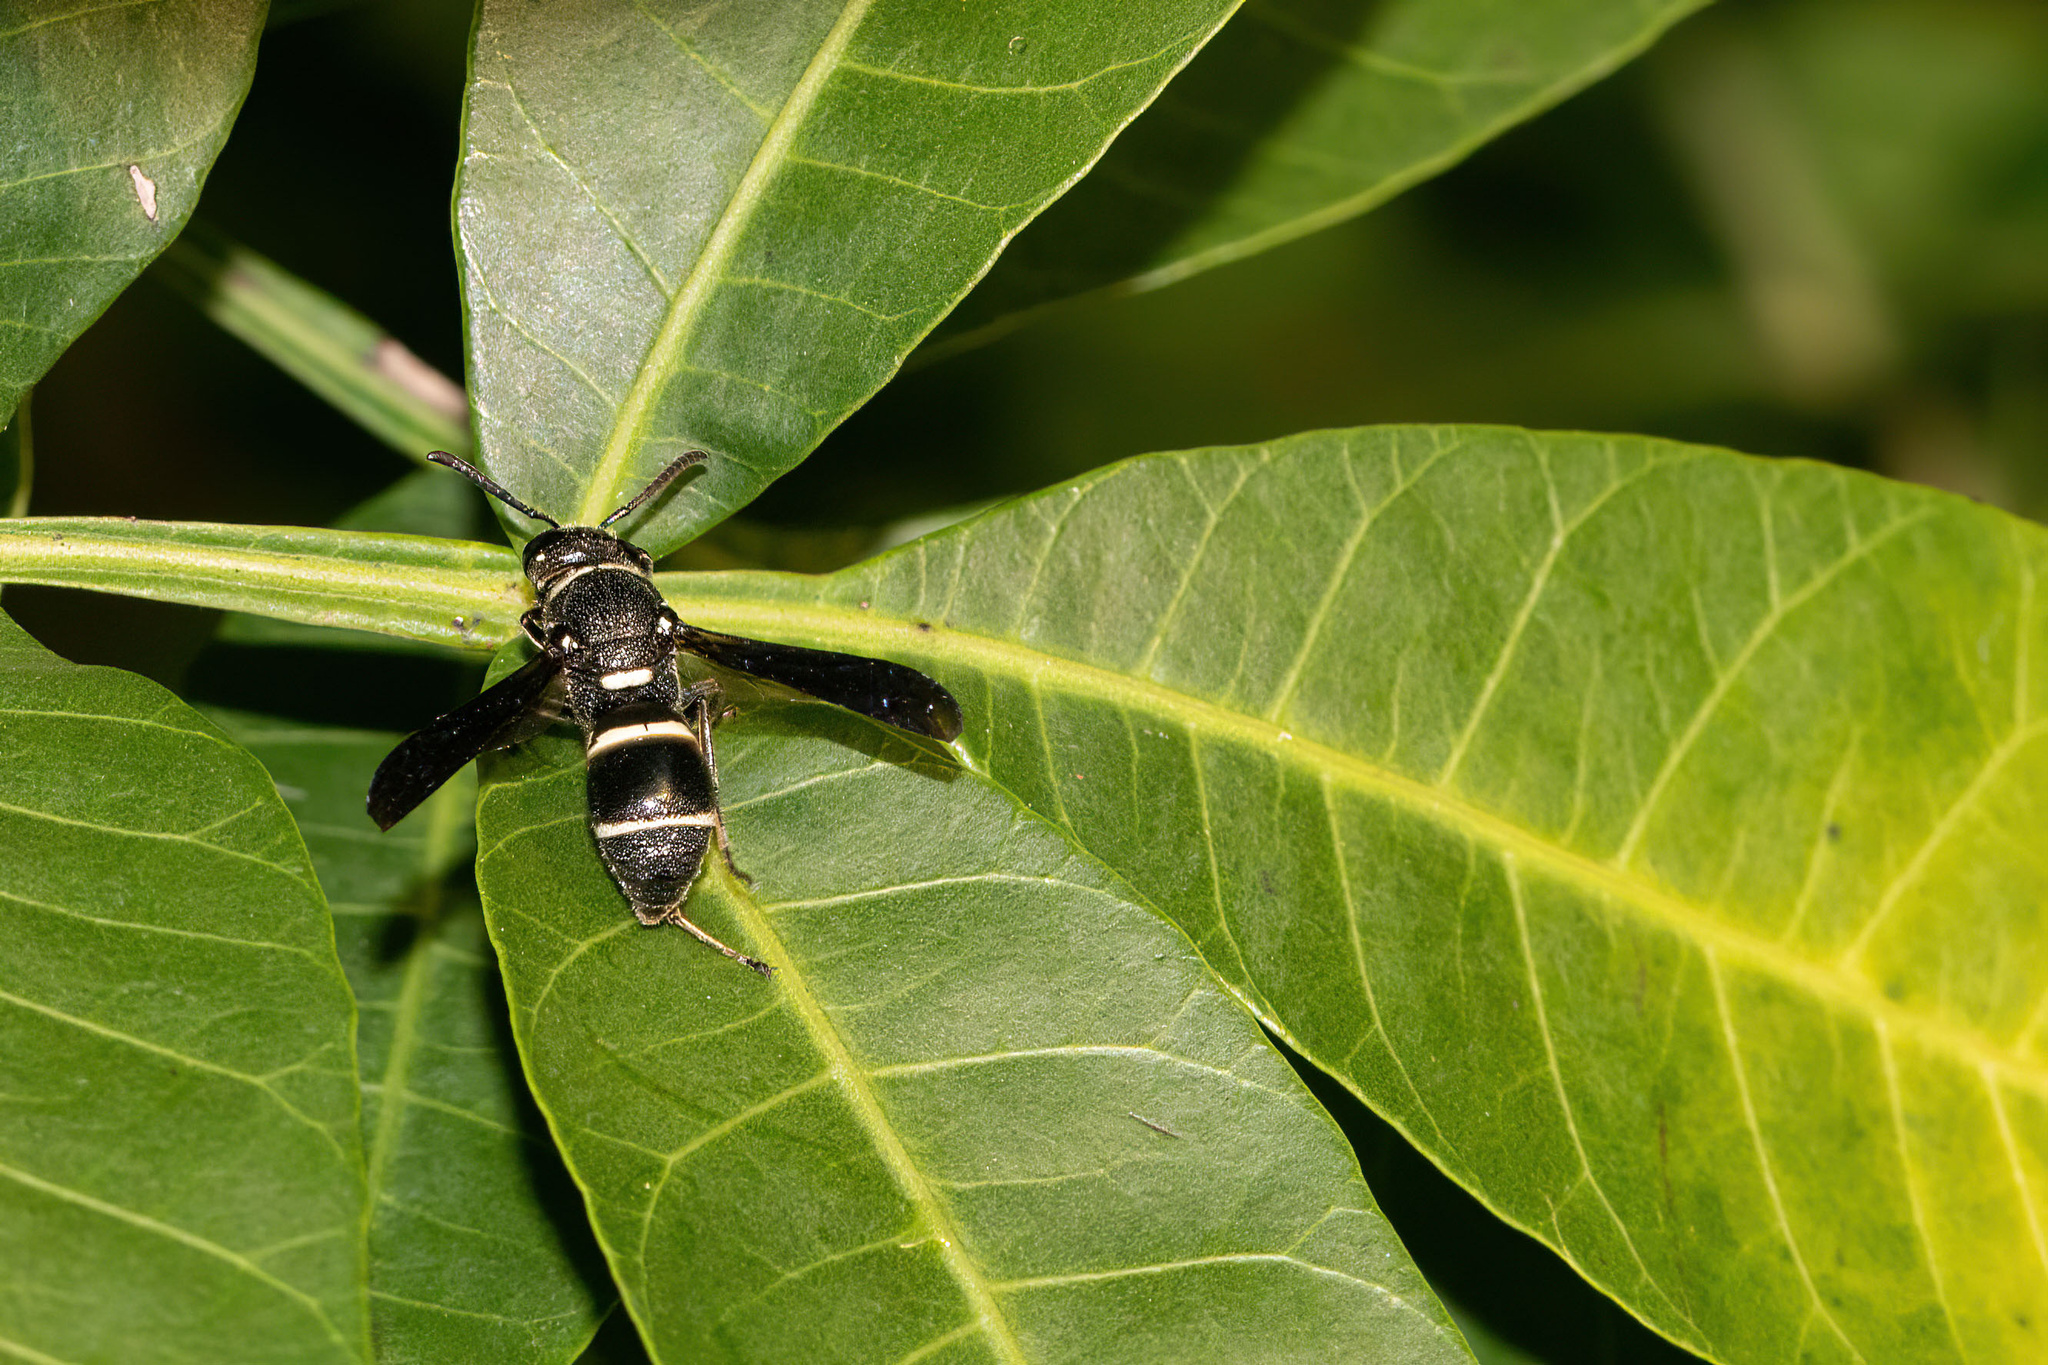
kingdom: Animalia
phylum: Arthropoda
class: Insecta
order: Hymenoptera
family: Eumenidae
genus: Euodynerus
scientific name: Euodynerus megaera
